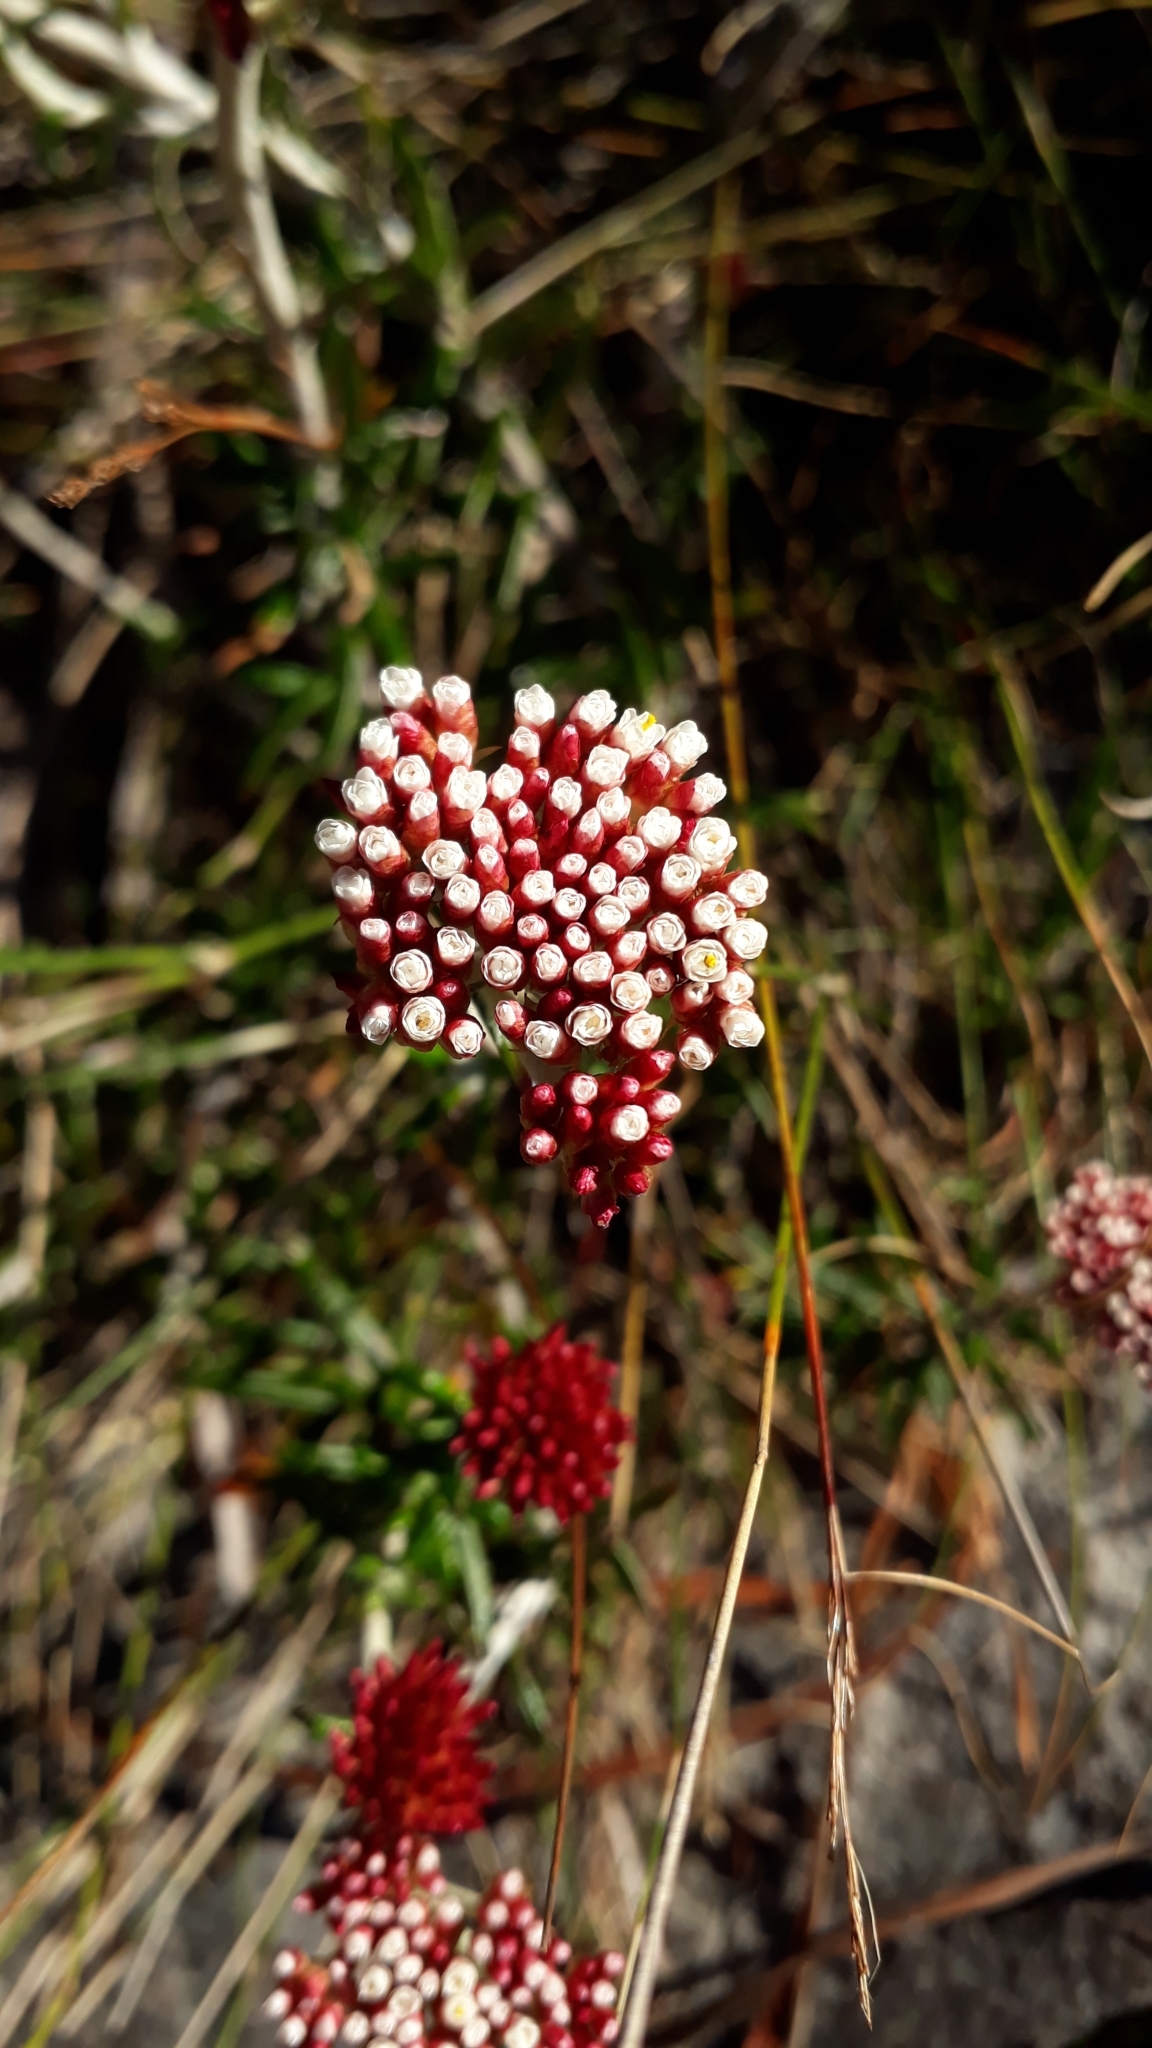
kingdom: Plantae
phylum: Tracheophyta
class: Magnoliopsida
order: Asterales
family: Asteraceae
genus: Anaxeton
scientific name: Anaxeton arborescens
